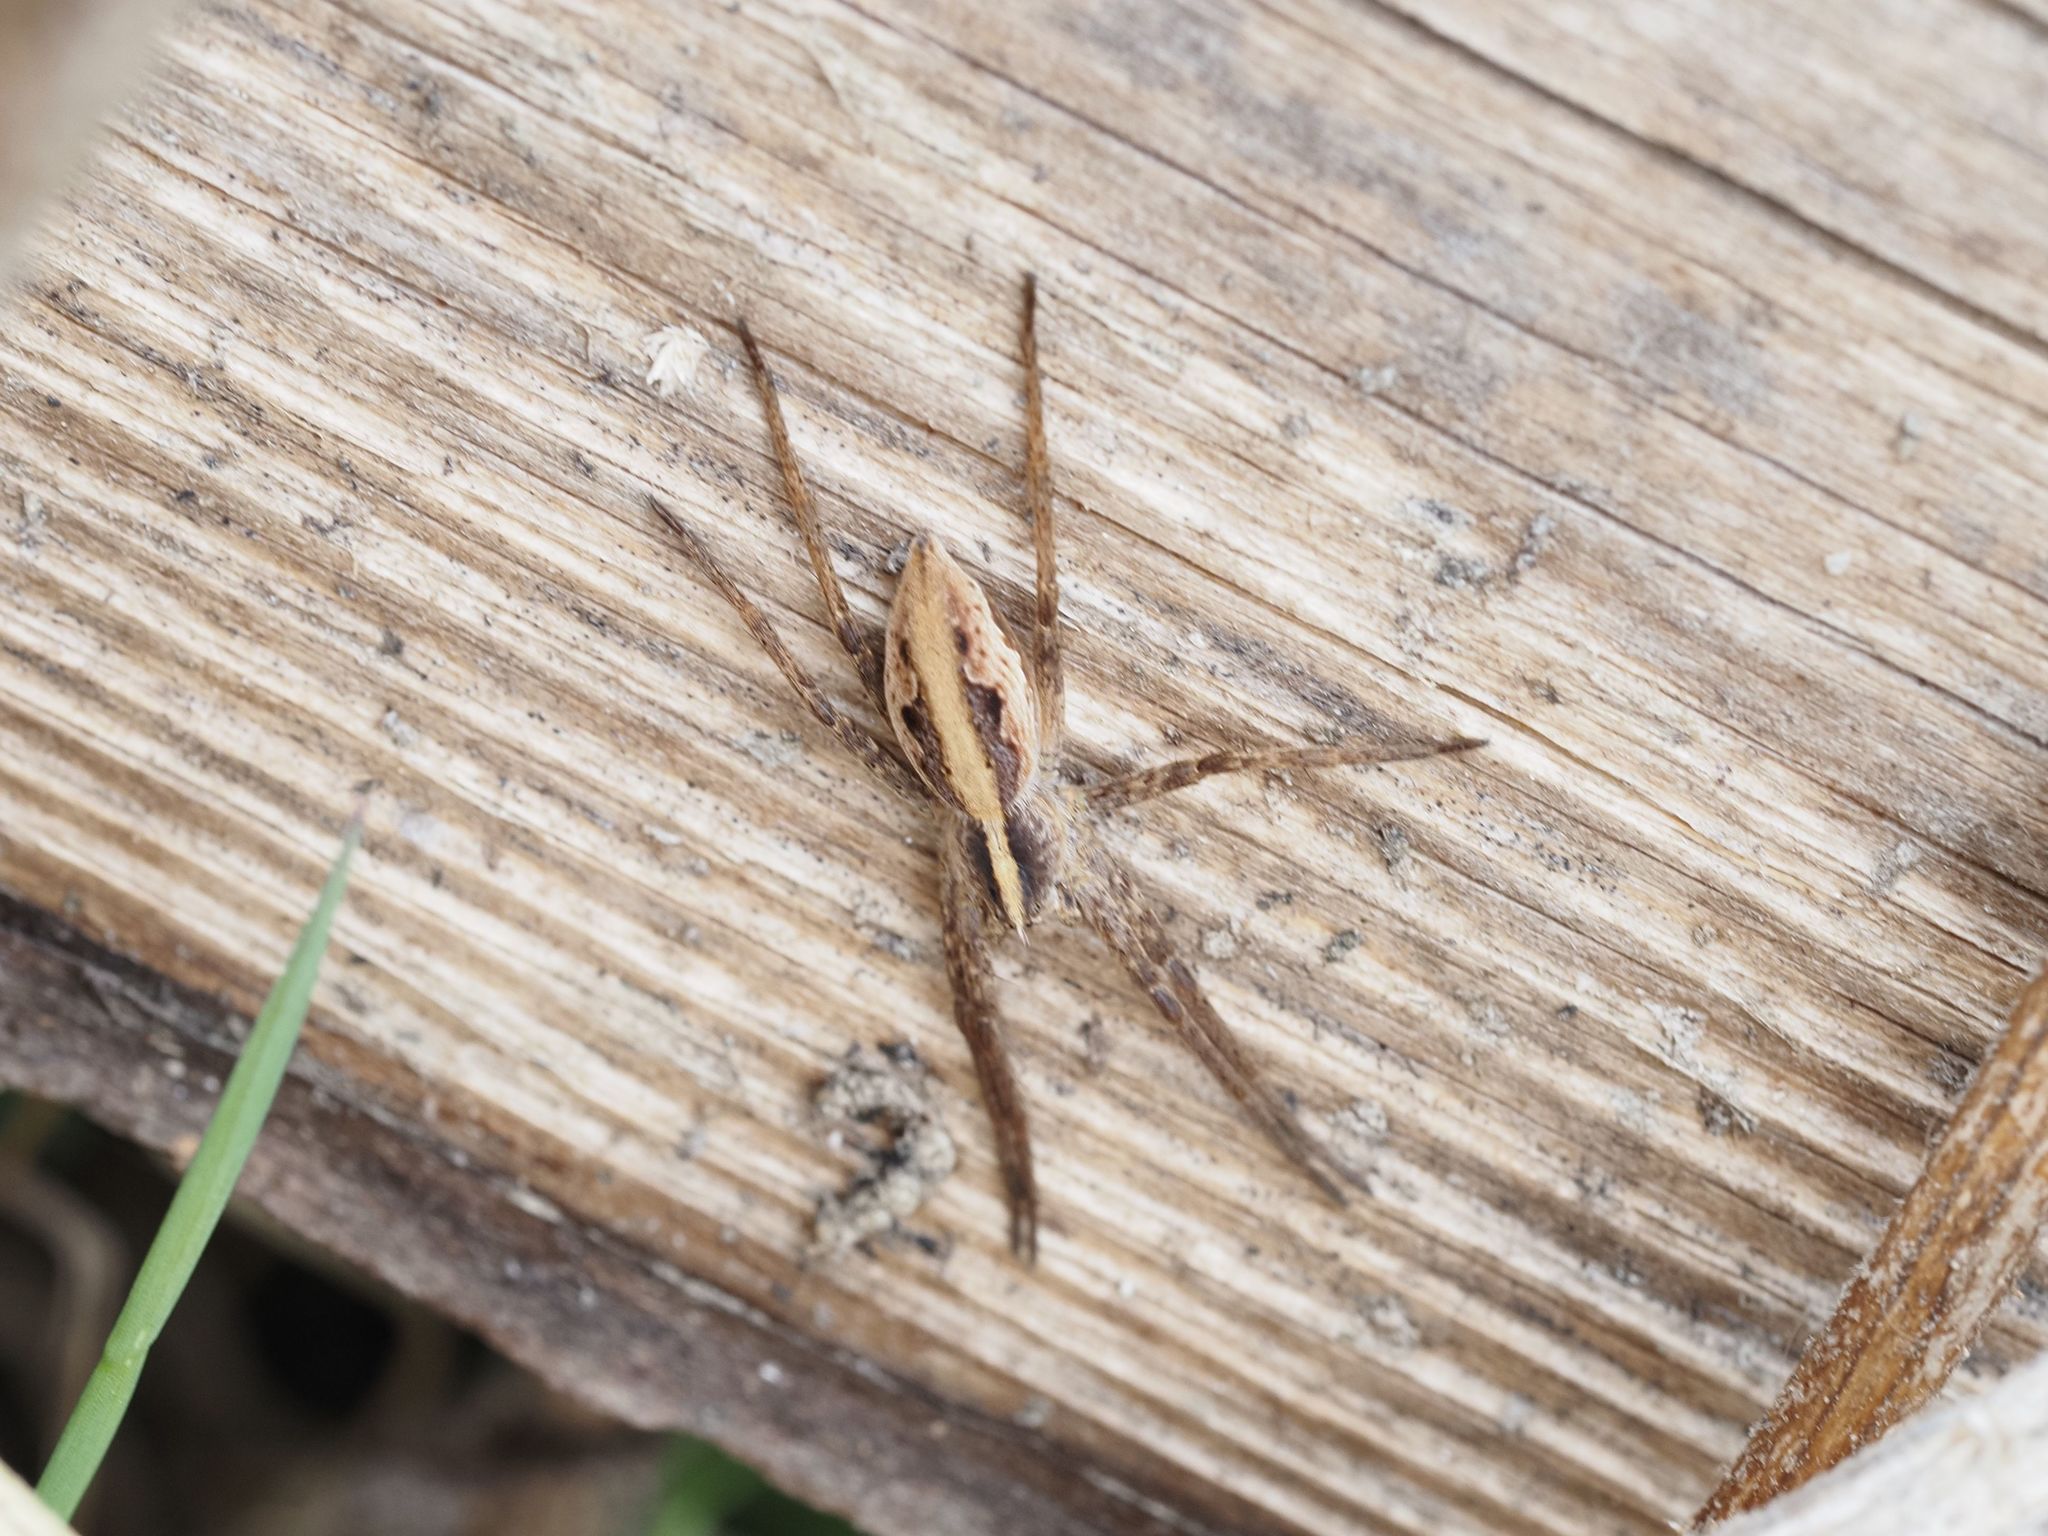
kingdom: Animalia
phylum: Arthropoda
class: Arachnida
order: Araneae
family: Pisauridae
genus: Pisaura
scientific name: Pisaura mirabilis
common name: Tent spider
